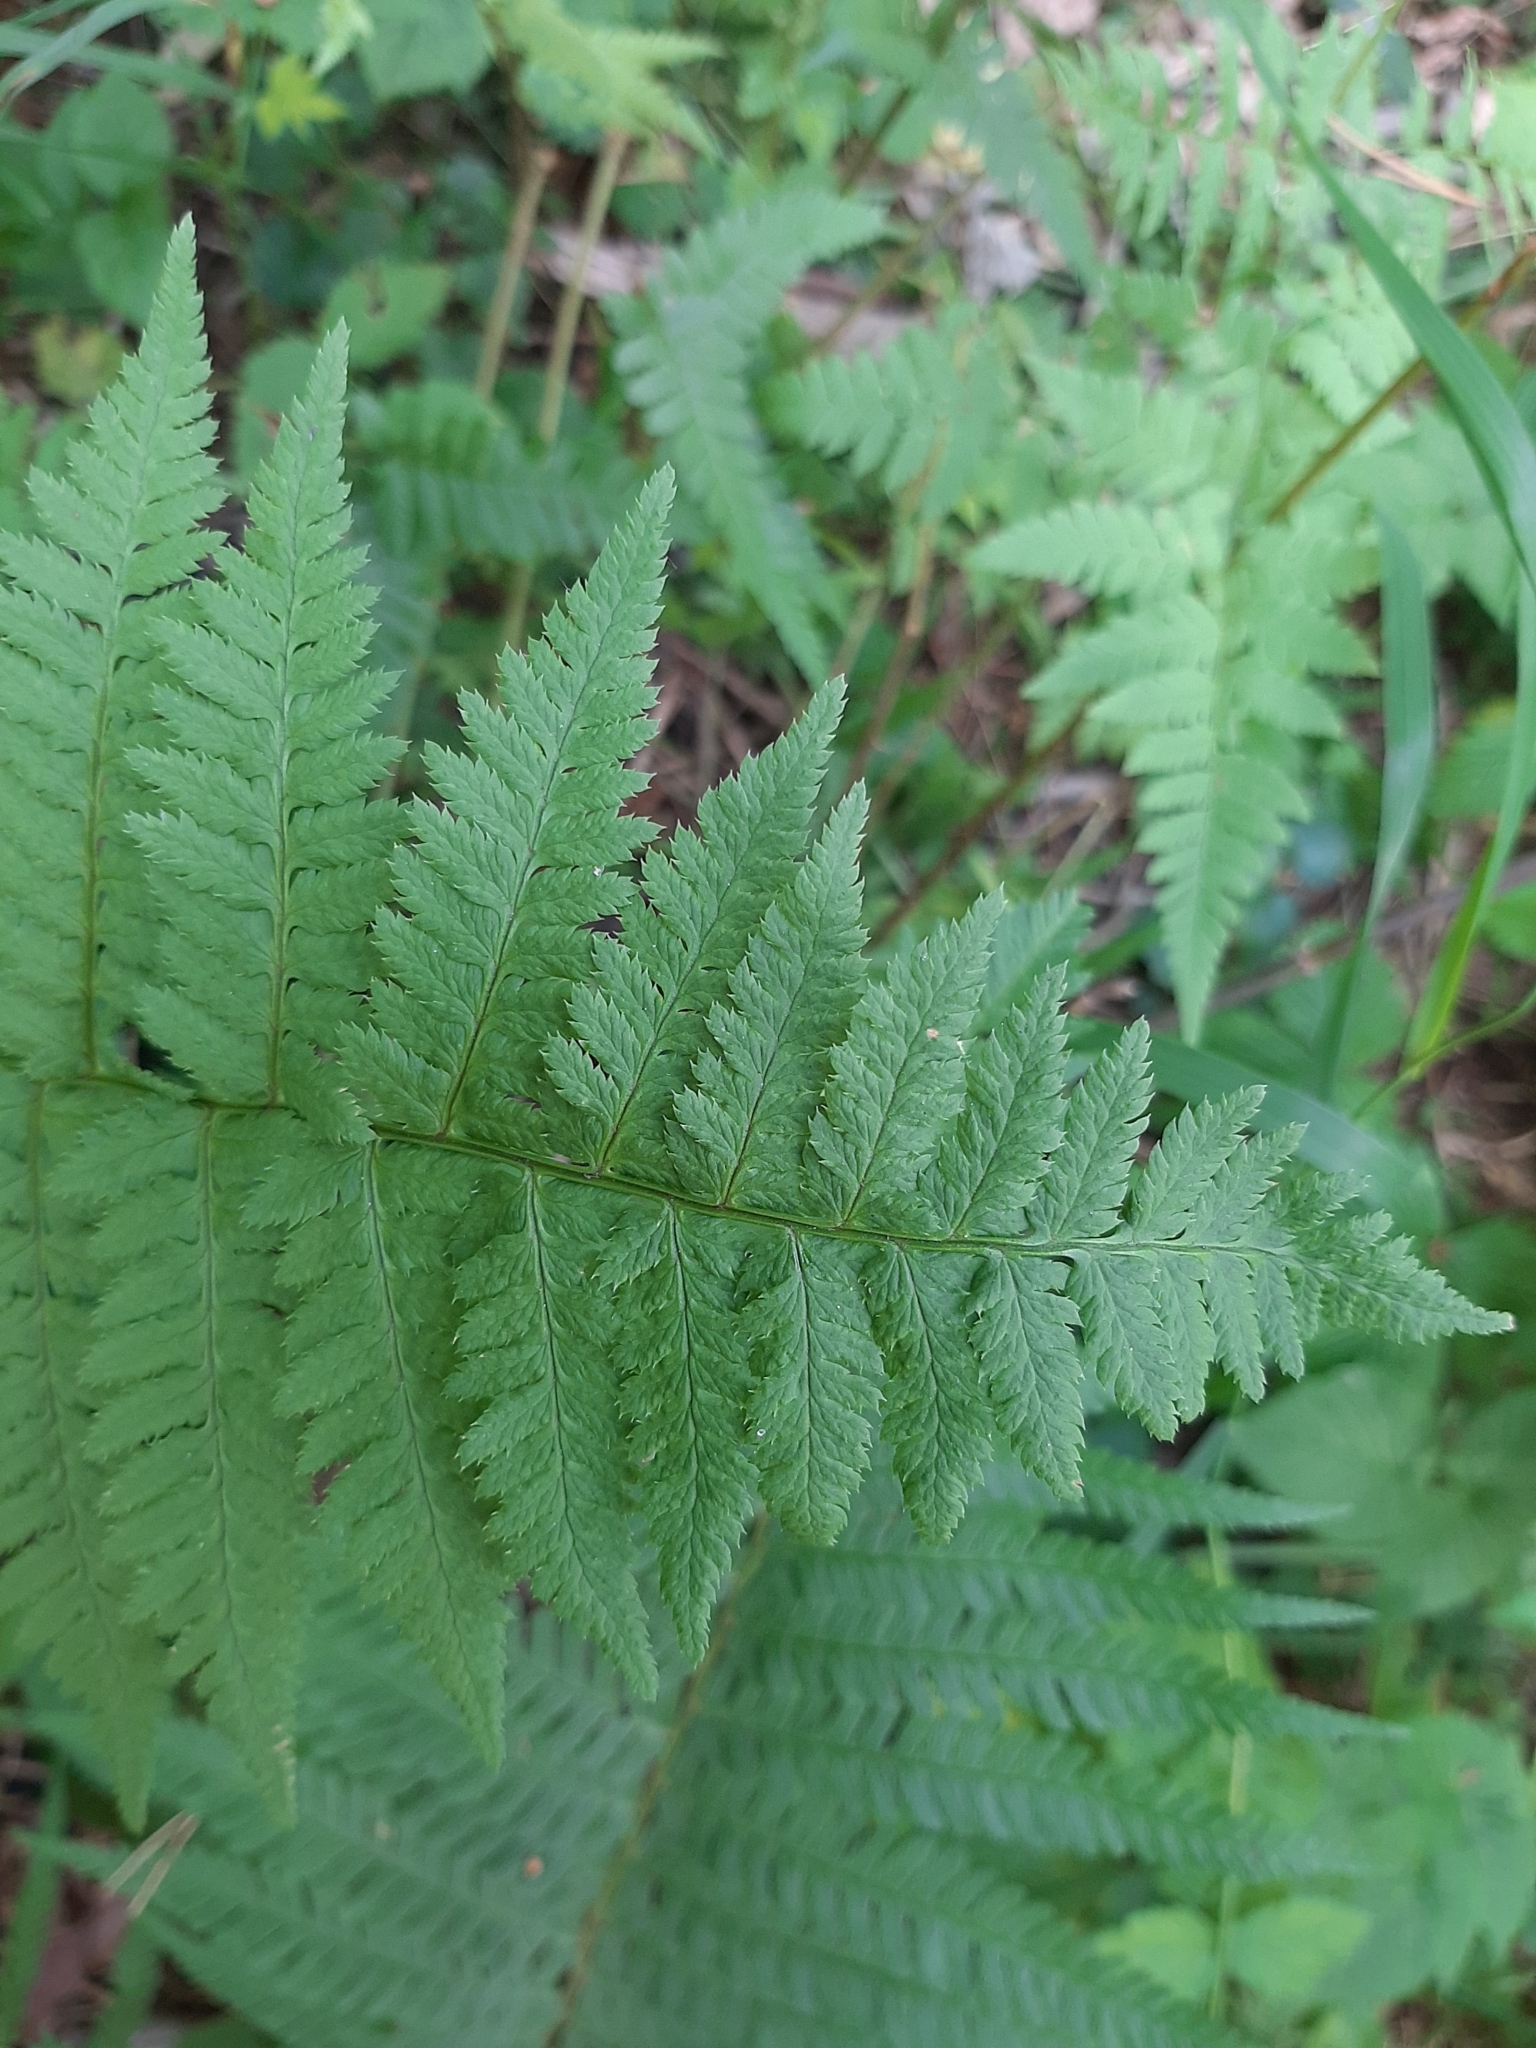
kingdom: Plantae
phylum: Tracheophyta
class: Polypodiopsida
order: Polypodiales
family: Dryopteridaceae
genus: Dryopteris
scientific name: Dryopteris carthusiana
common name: Narrow buckler-fern
